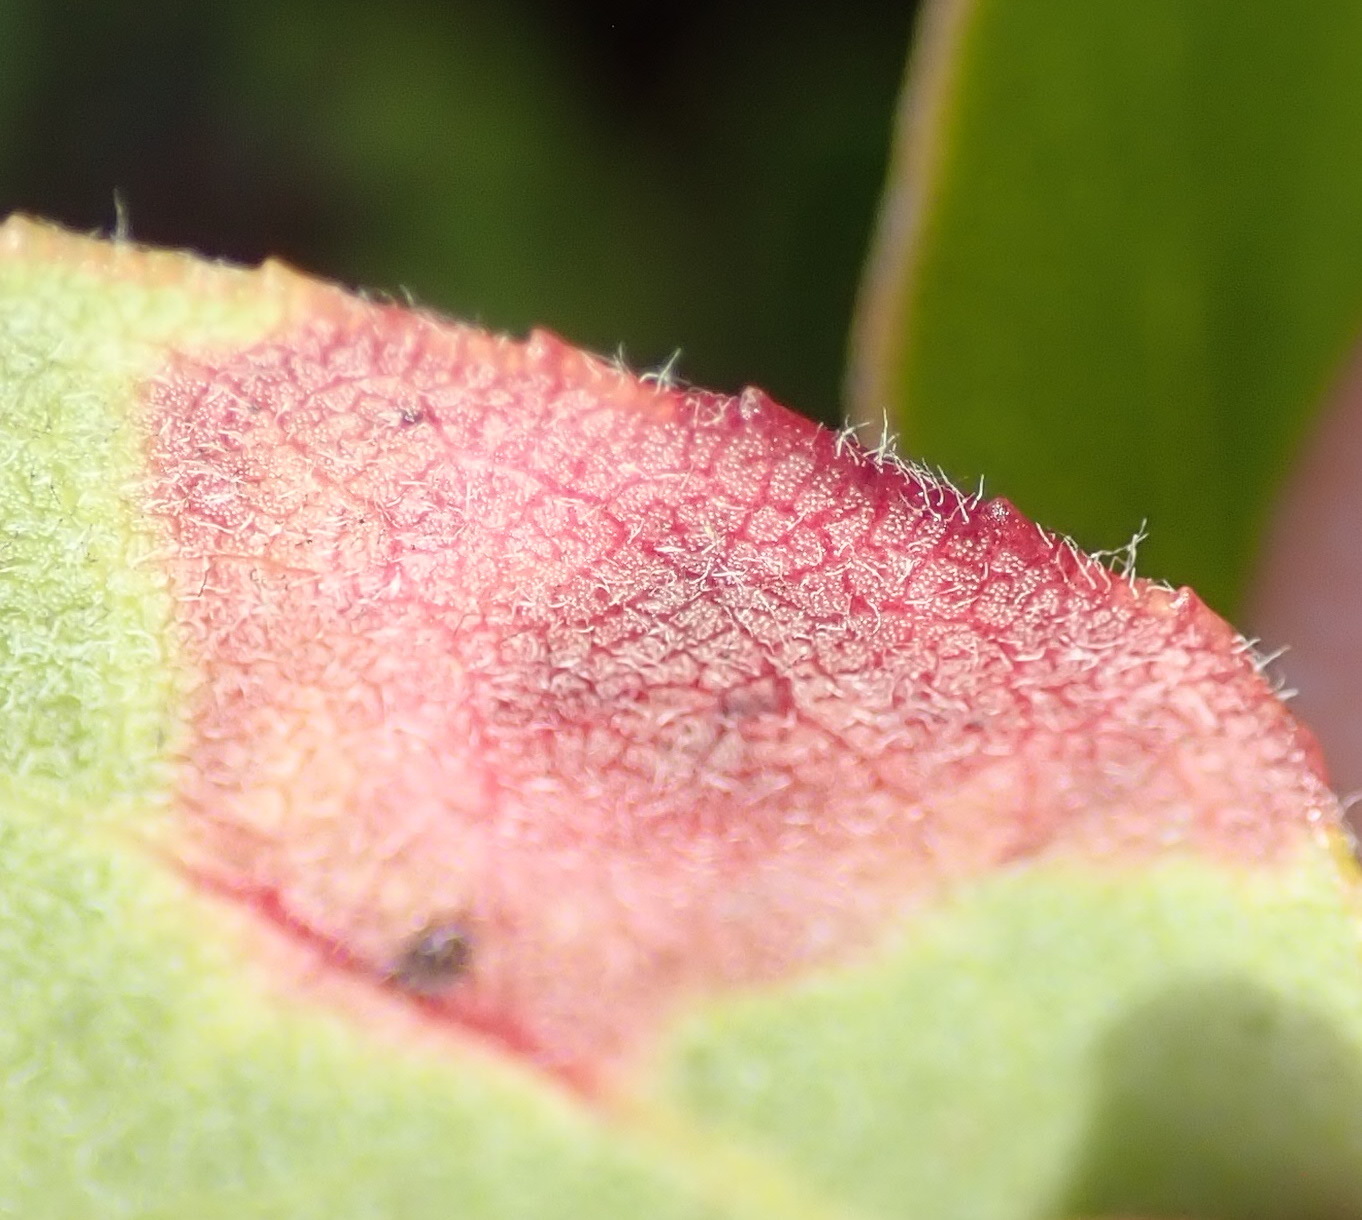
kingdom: Fungi
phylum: Basidiomycota
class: Exobasidiomycetes
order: Exobasidiales
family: Exobasidiaceae
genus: Exobasidium
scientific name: Exobasidium arctostaphyli
